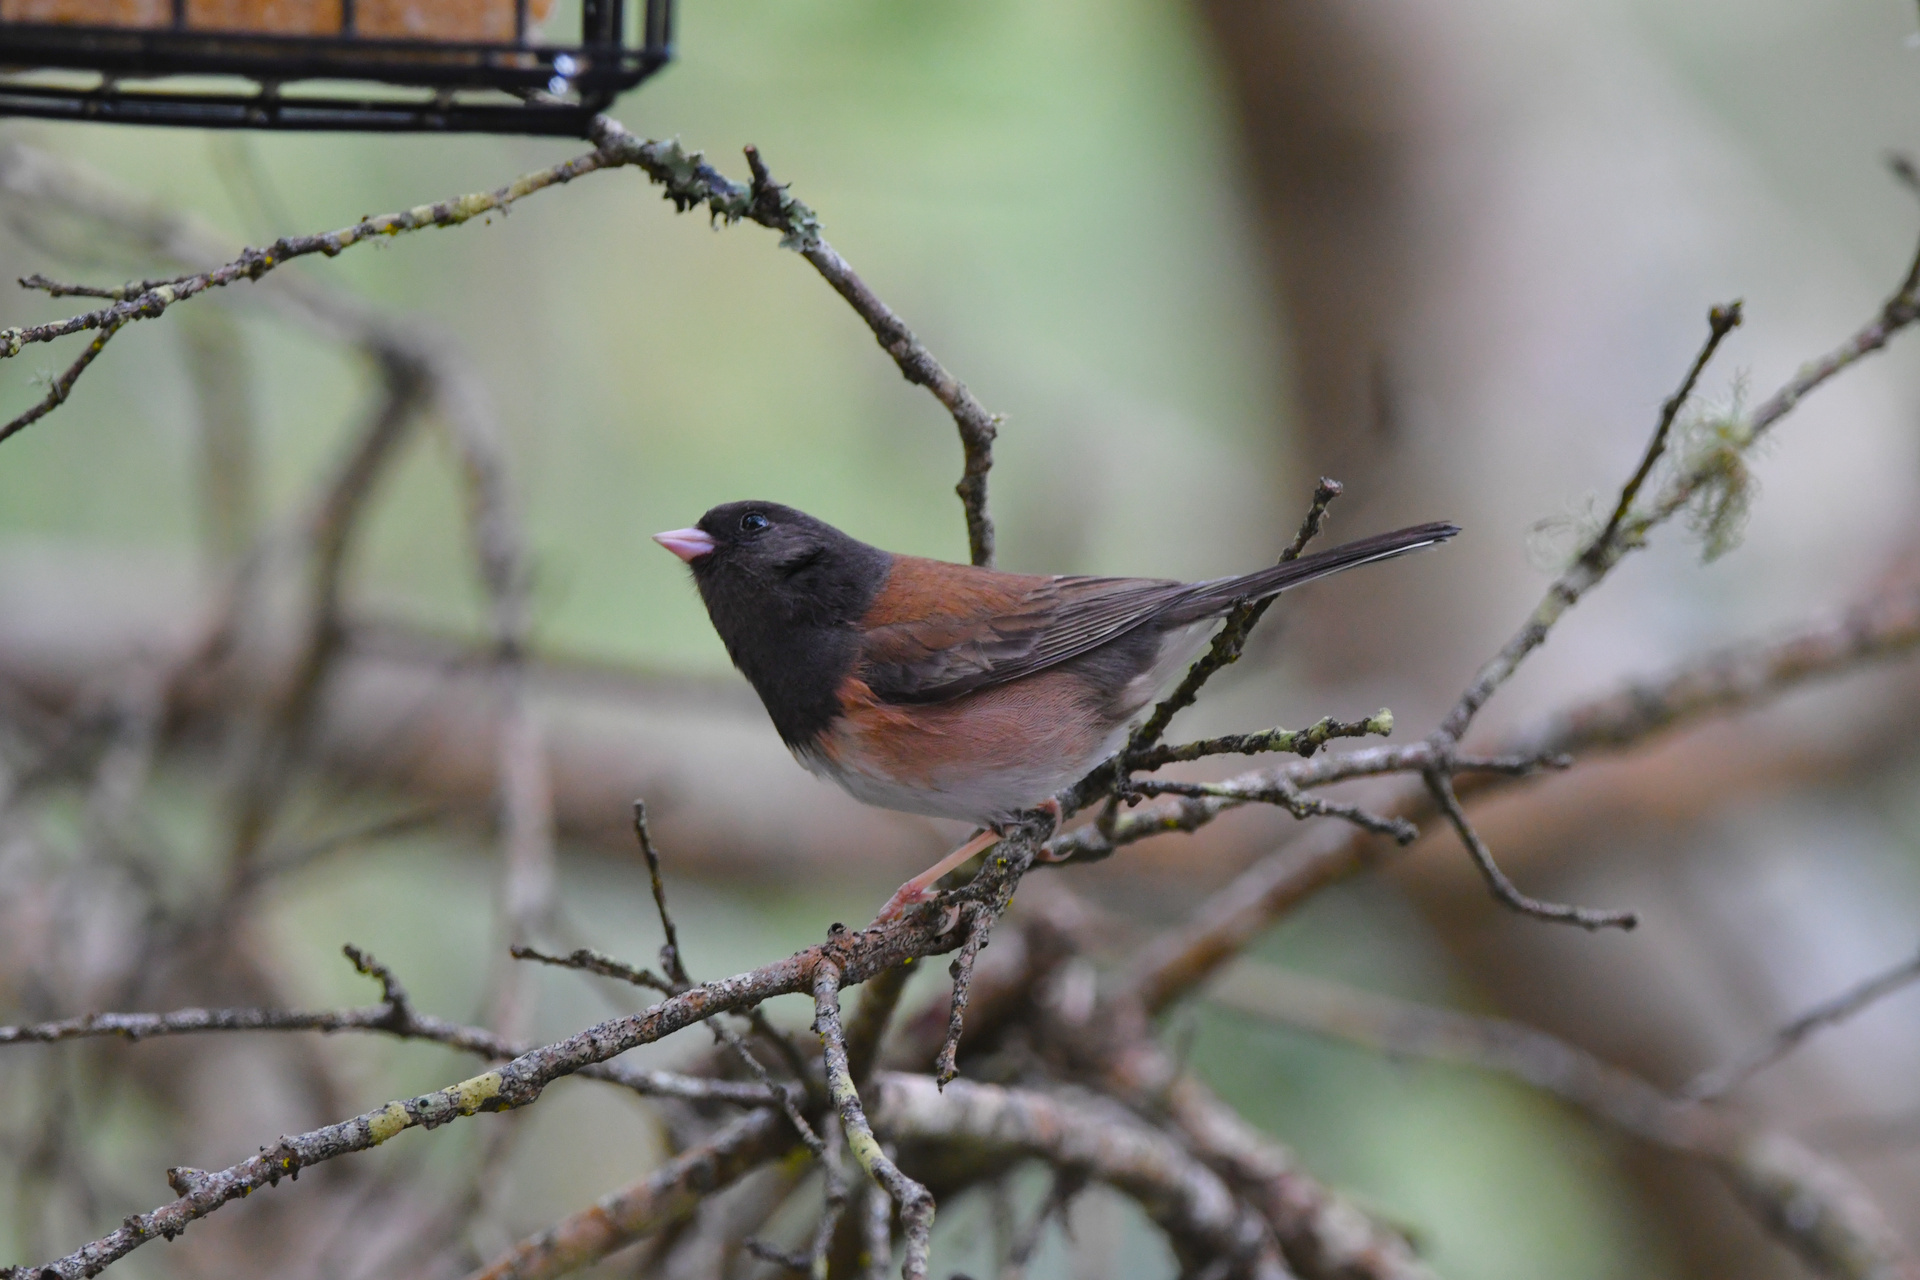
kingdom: Animalia
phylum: Chordata
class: Aves
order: Passeriformes
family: Passerellidae
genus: Junco
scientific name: Junco hyemalis
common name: Dark-eyed junco
